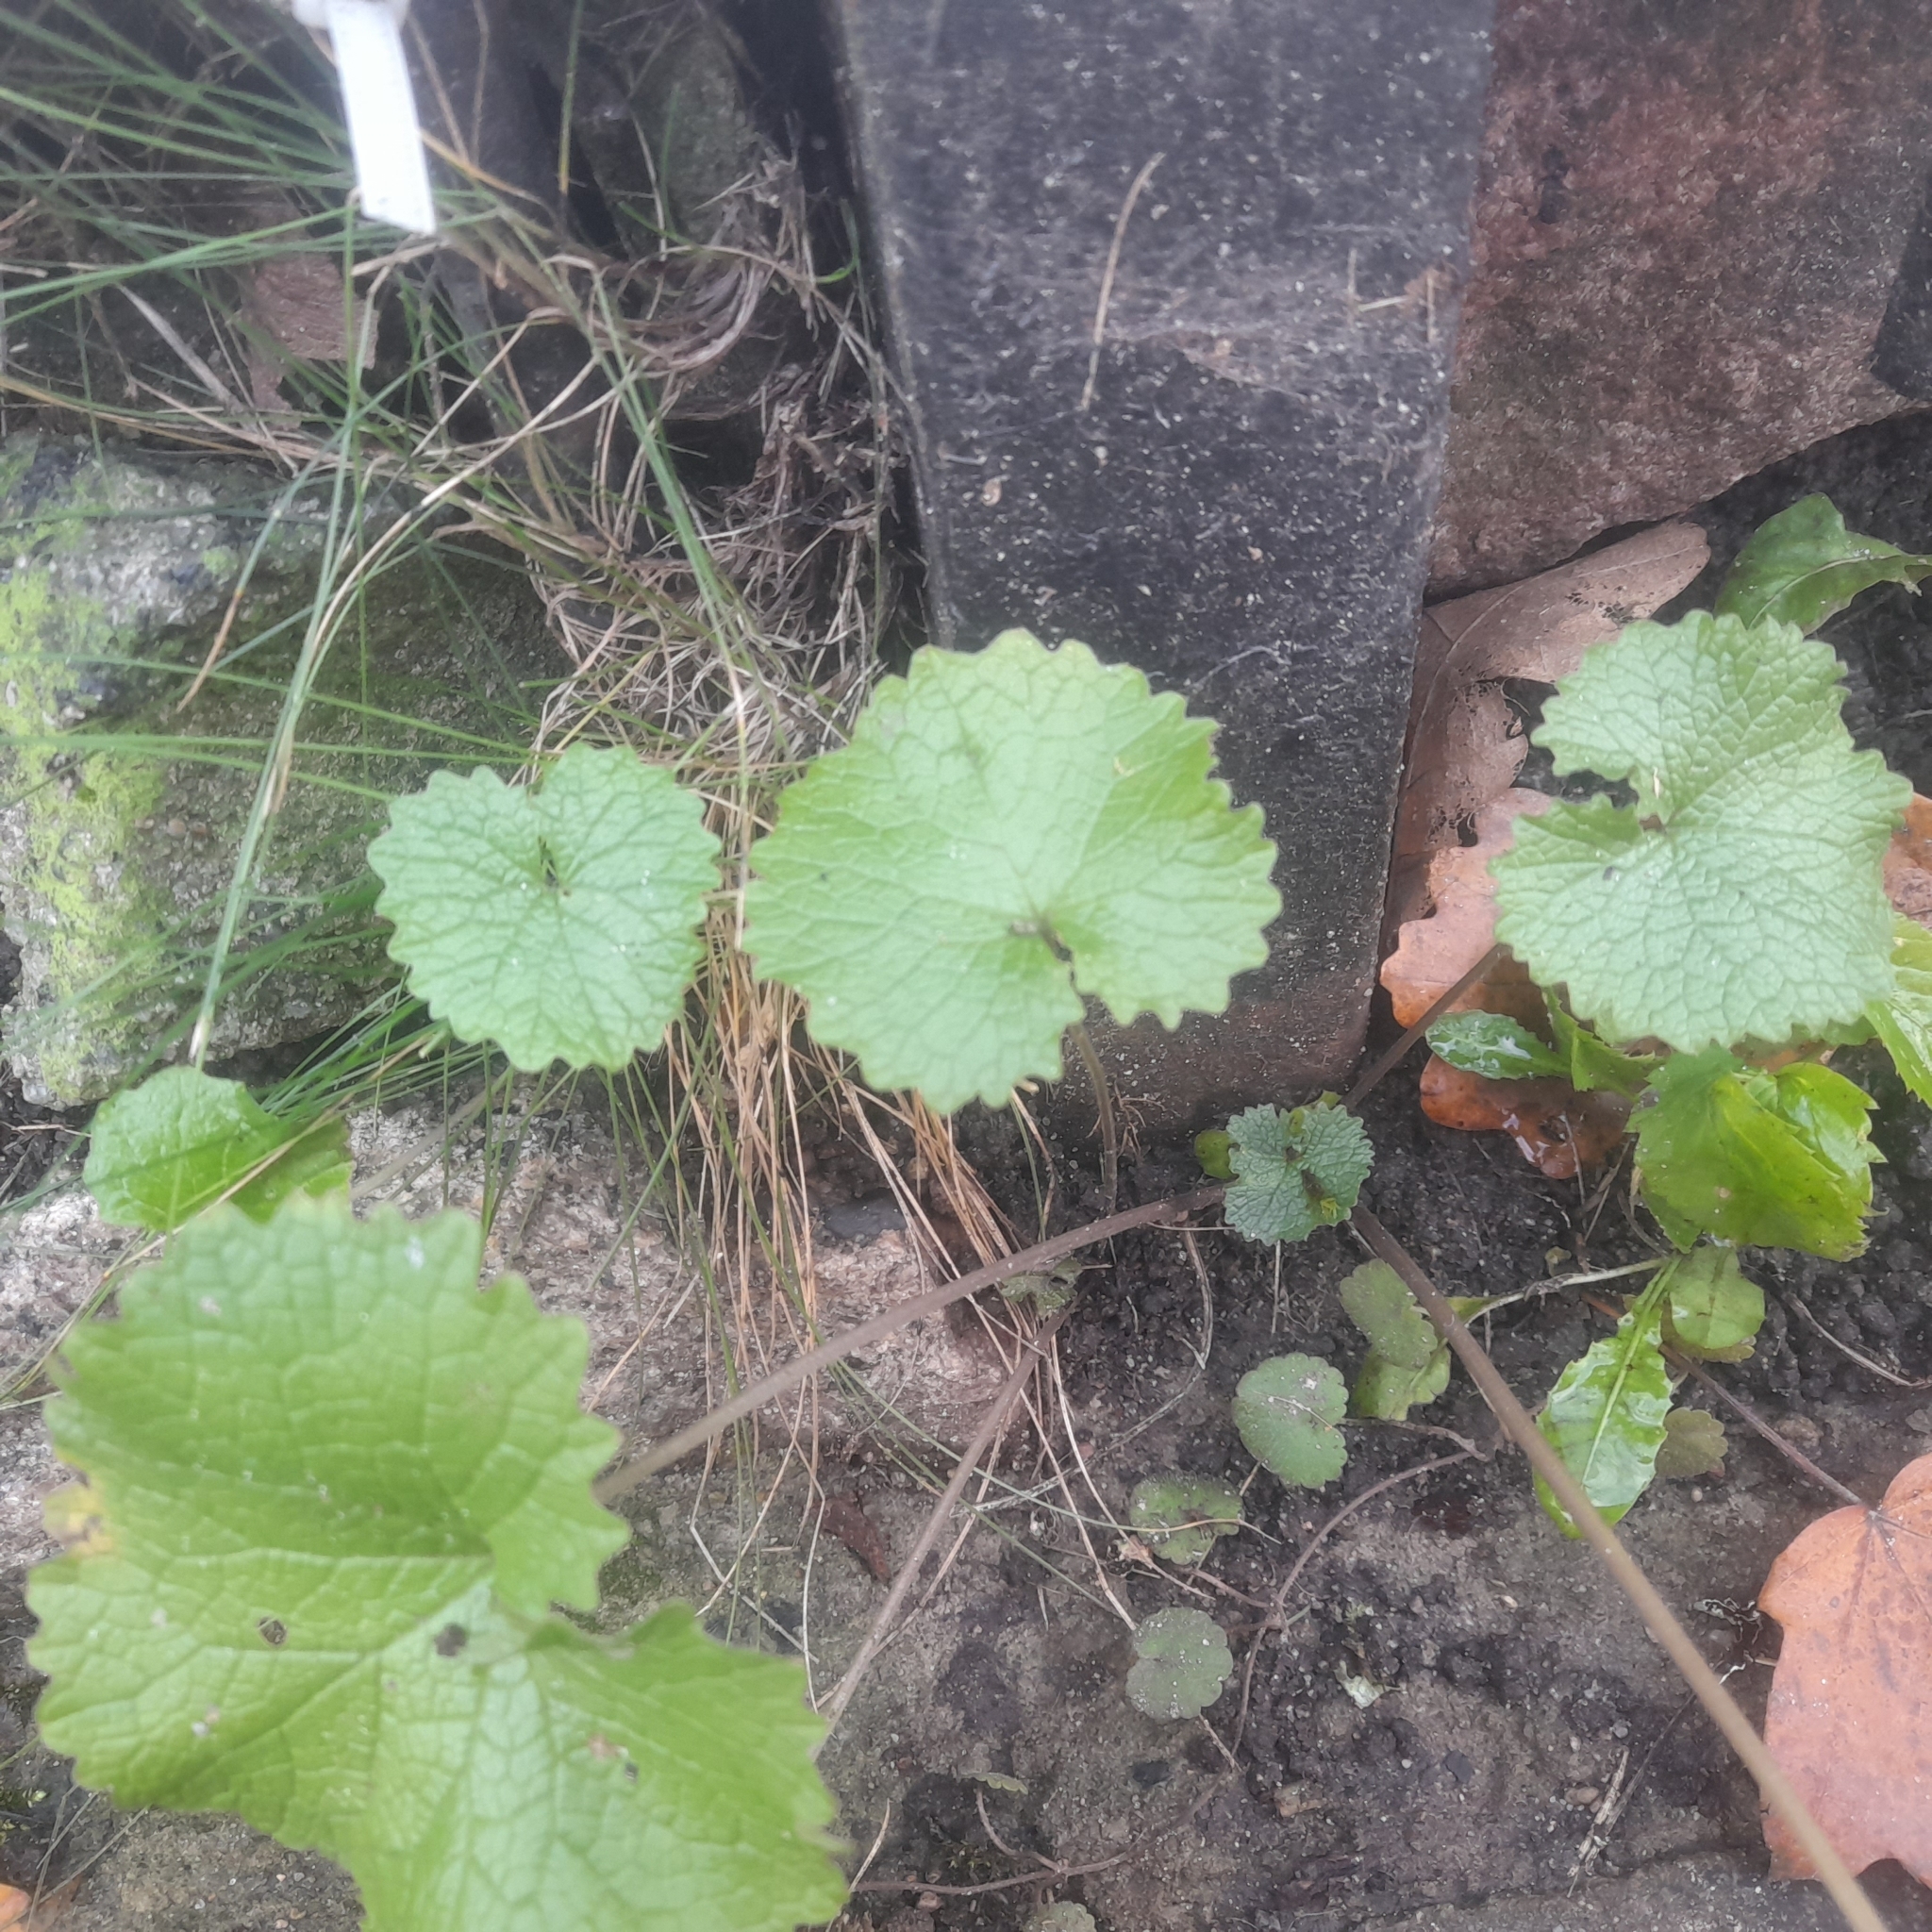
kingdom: Plantae
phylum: Tracheophyta
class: Magnoliopsida
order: Brassicales
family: Brassicaceae
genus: Alliaria
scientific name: Alliaria petiolata
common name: Garlic mustard
